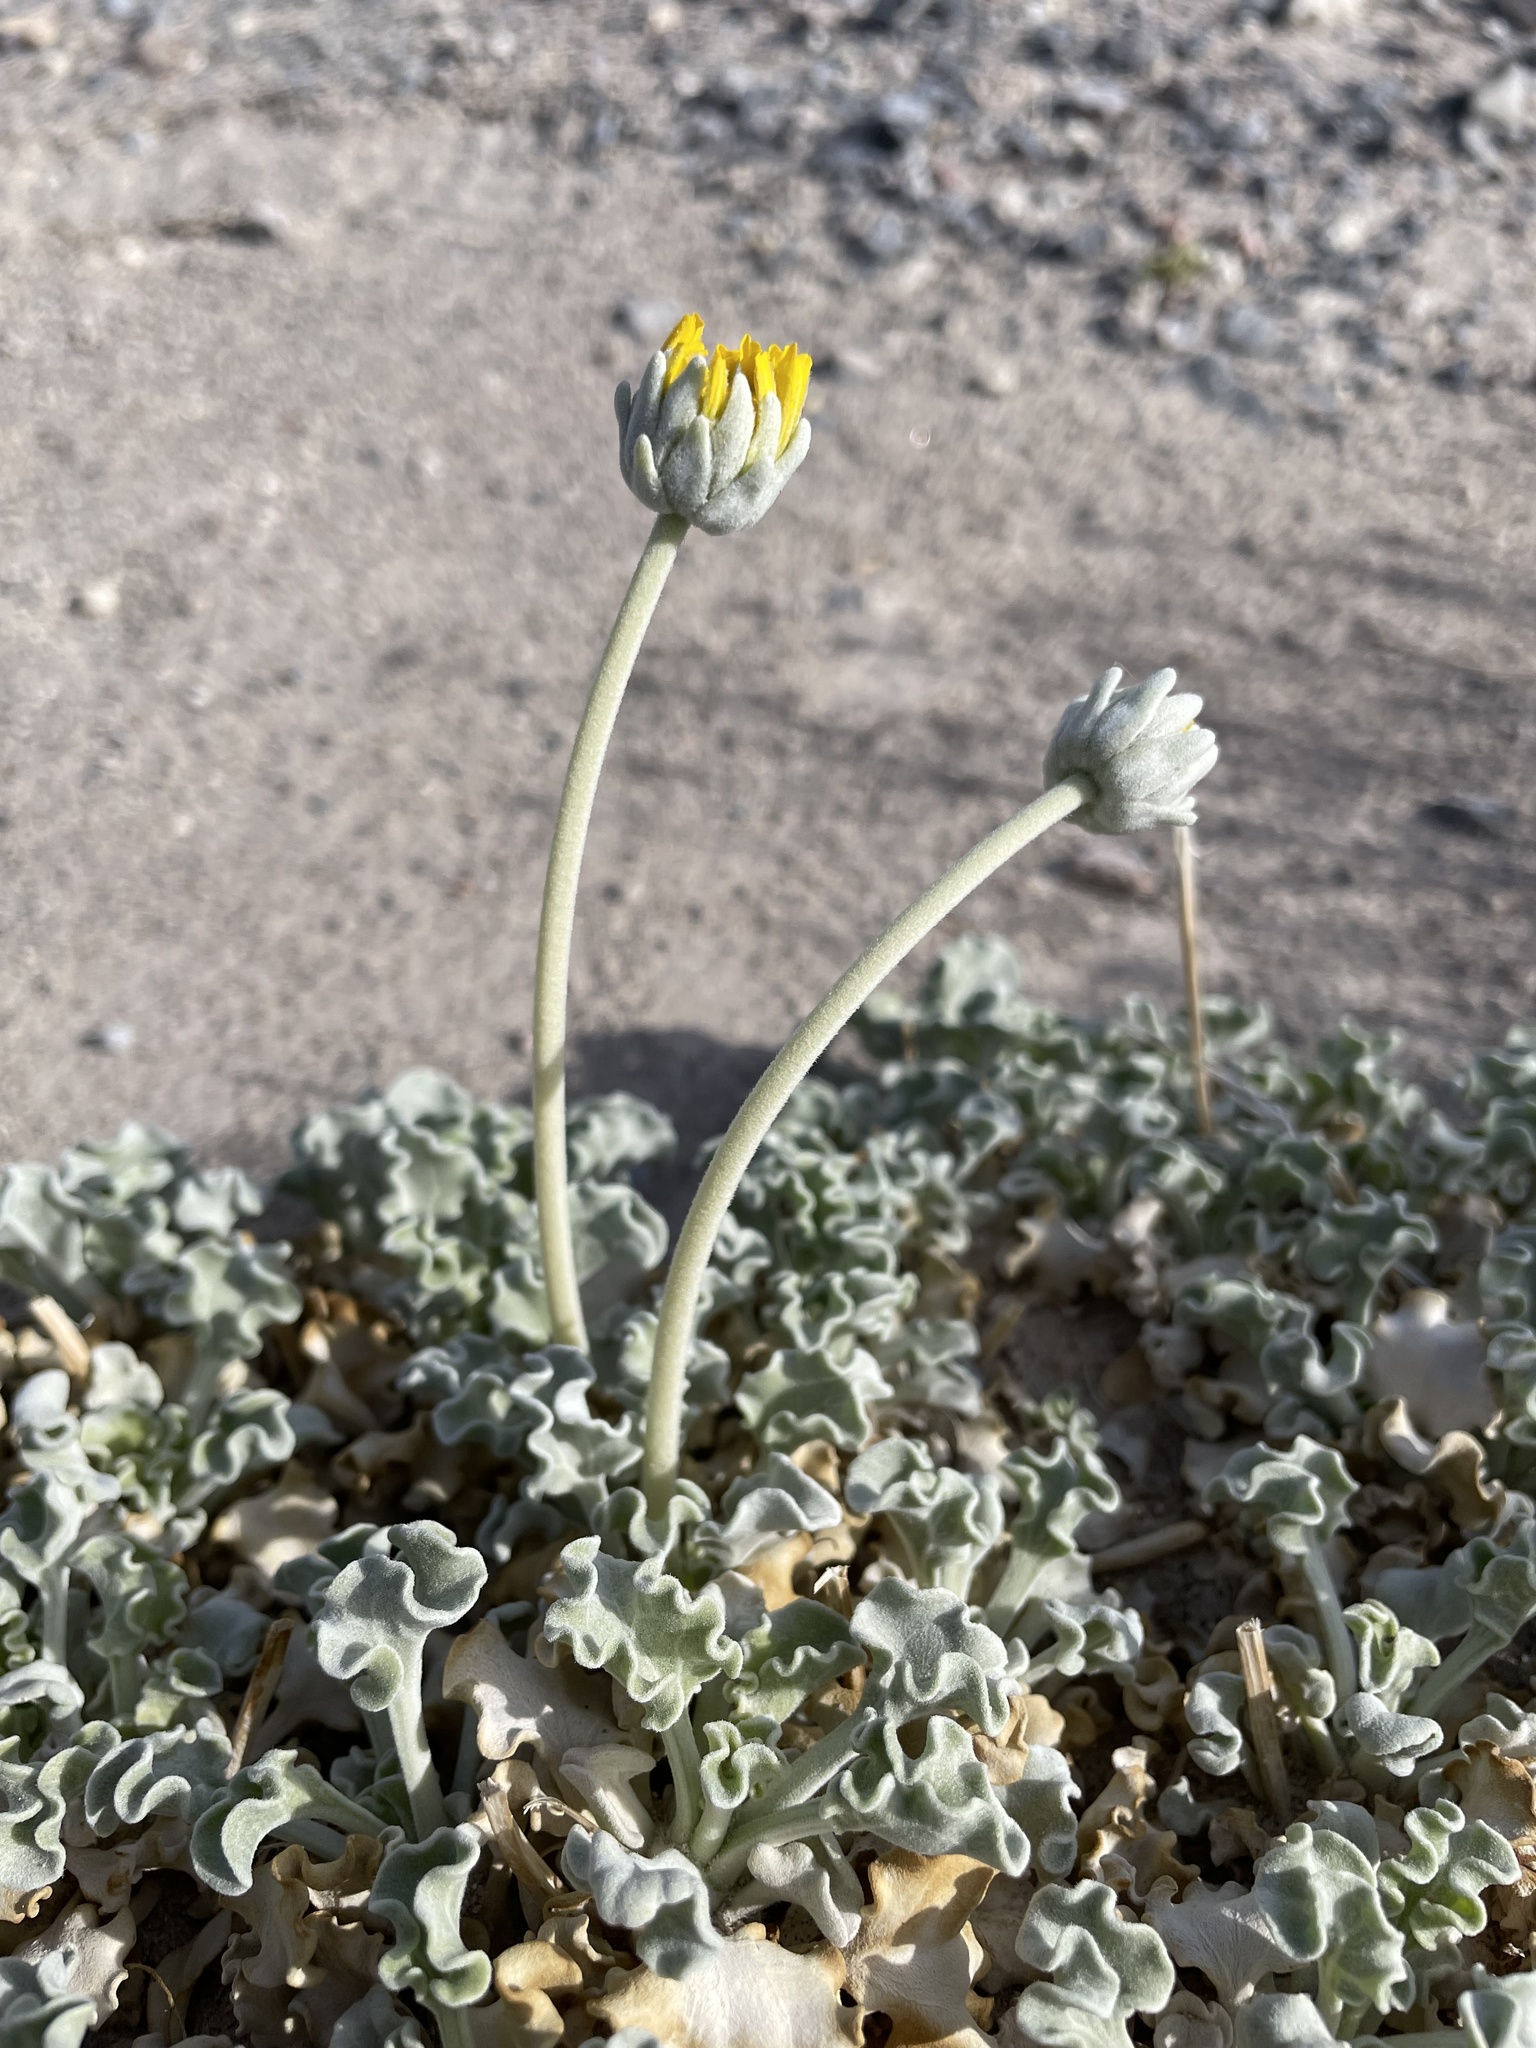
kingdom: Plantae
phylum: Tracheophyta
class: Magnoliopsida
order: Asterales
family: Asteraceae
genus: Enceliopsis
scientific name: Enceliopsis nudicaulis
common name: Naked-stem daisy
